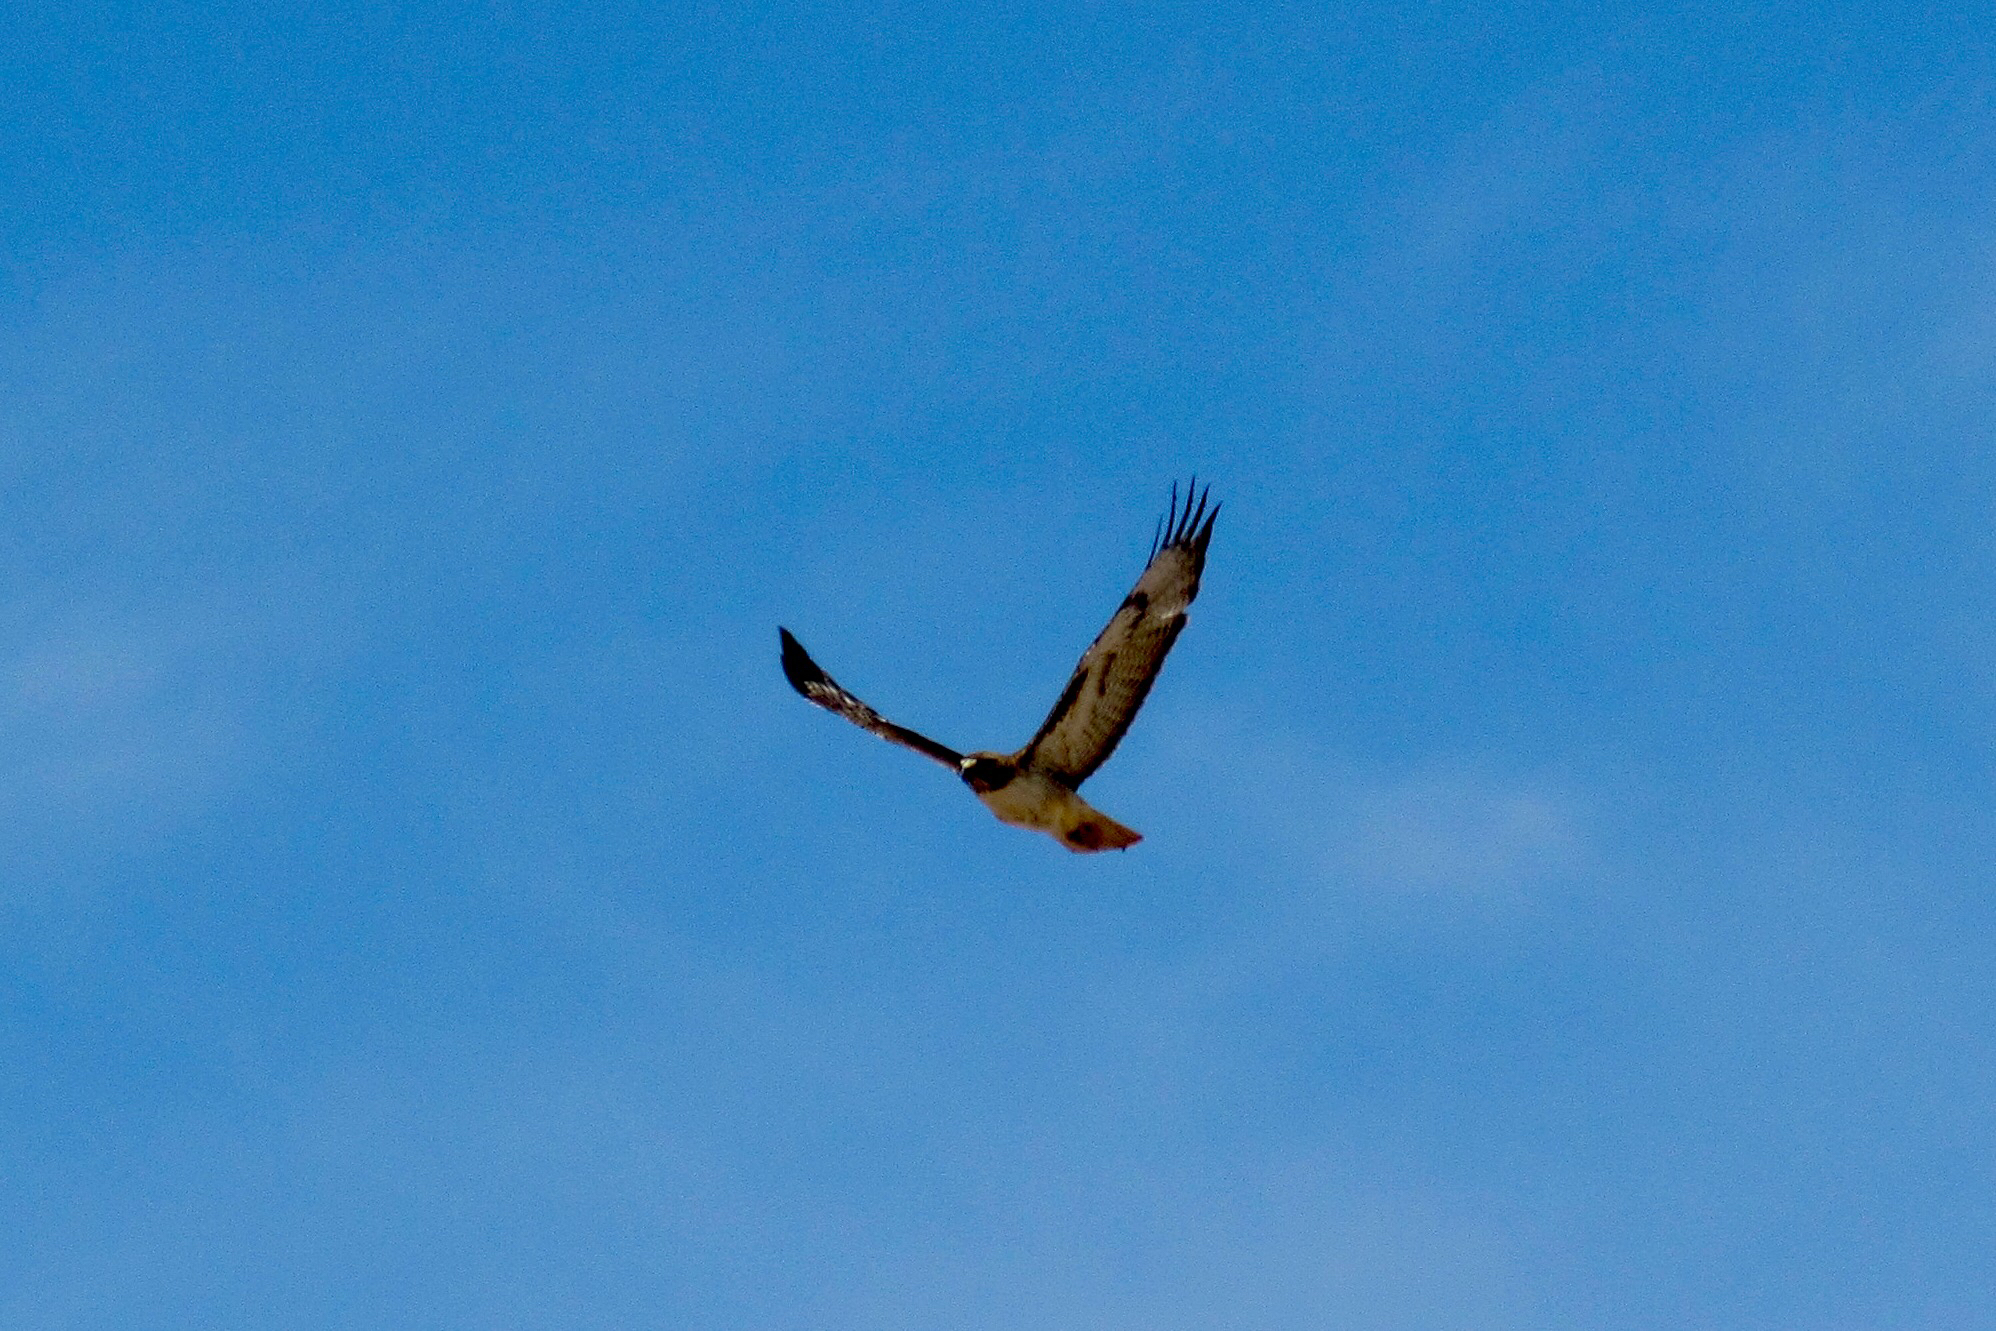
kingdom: Animalia
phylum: Chordata
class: Aves
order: Accipitriformes
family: Accipitridae
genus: Buteo
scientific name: Buteo jamaicensis
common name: Red-tailed hawk
